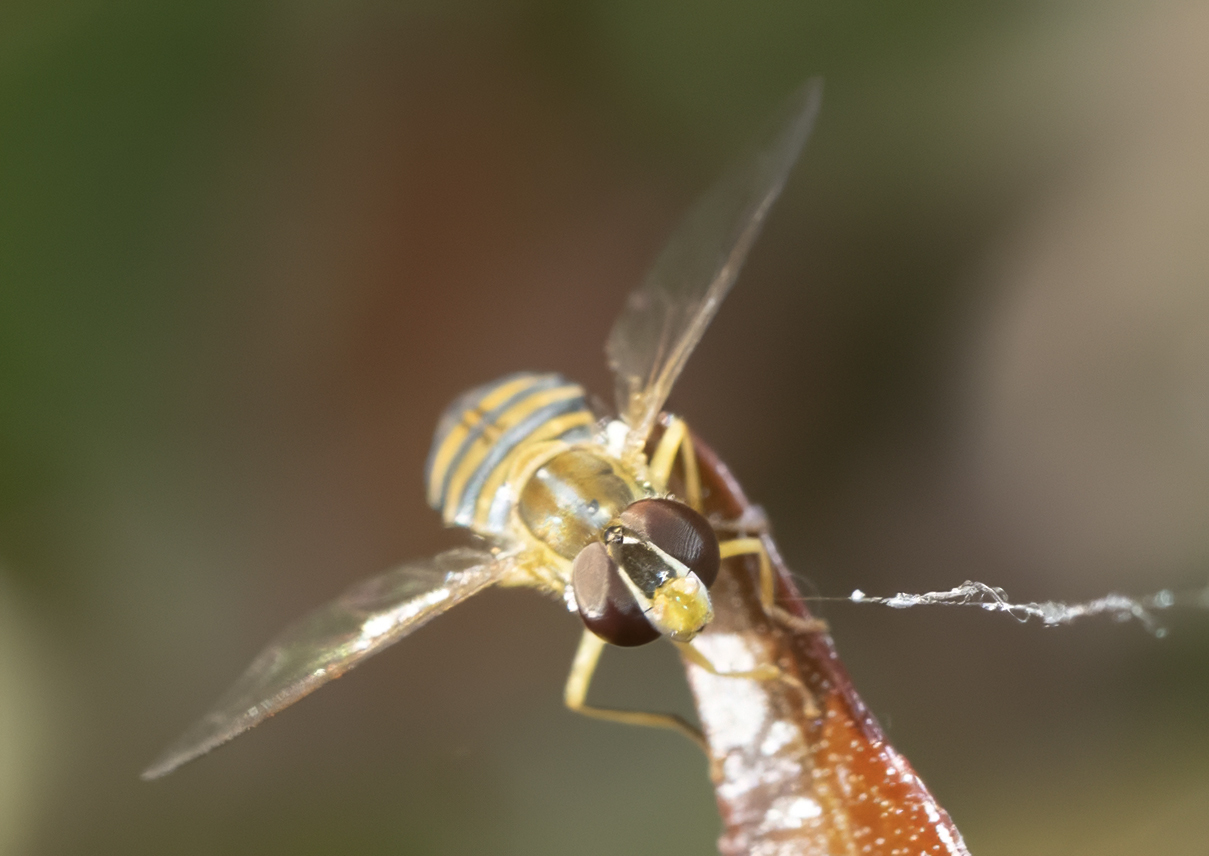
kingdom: Animalia
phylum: Arthropoda
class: Insecta
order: Diptera
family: Syrphidae
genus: Toxomerus
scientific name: Toxomerus
